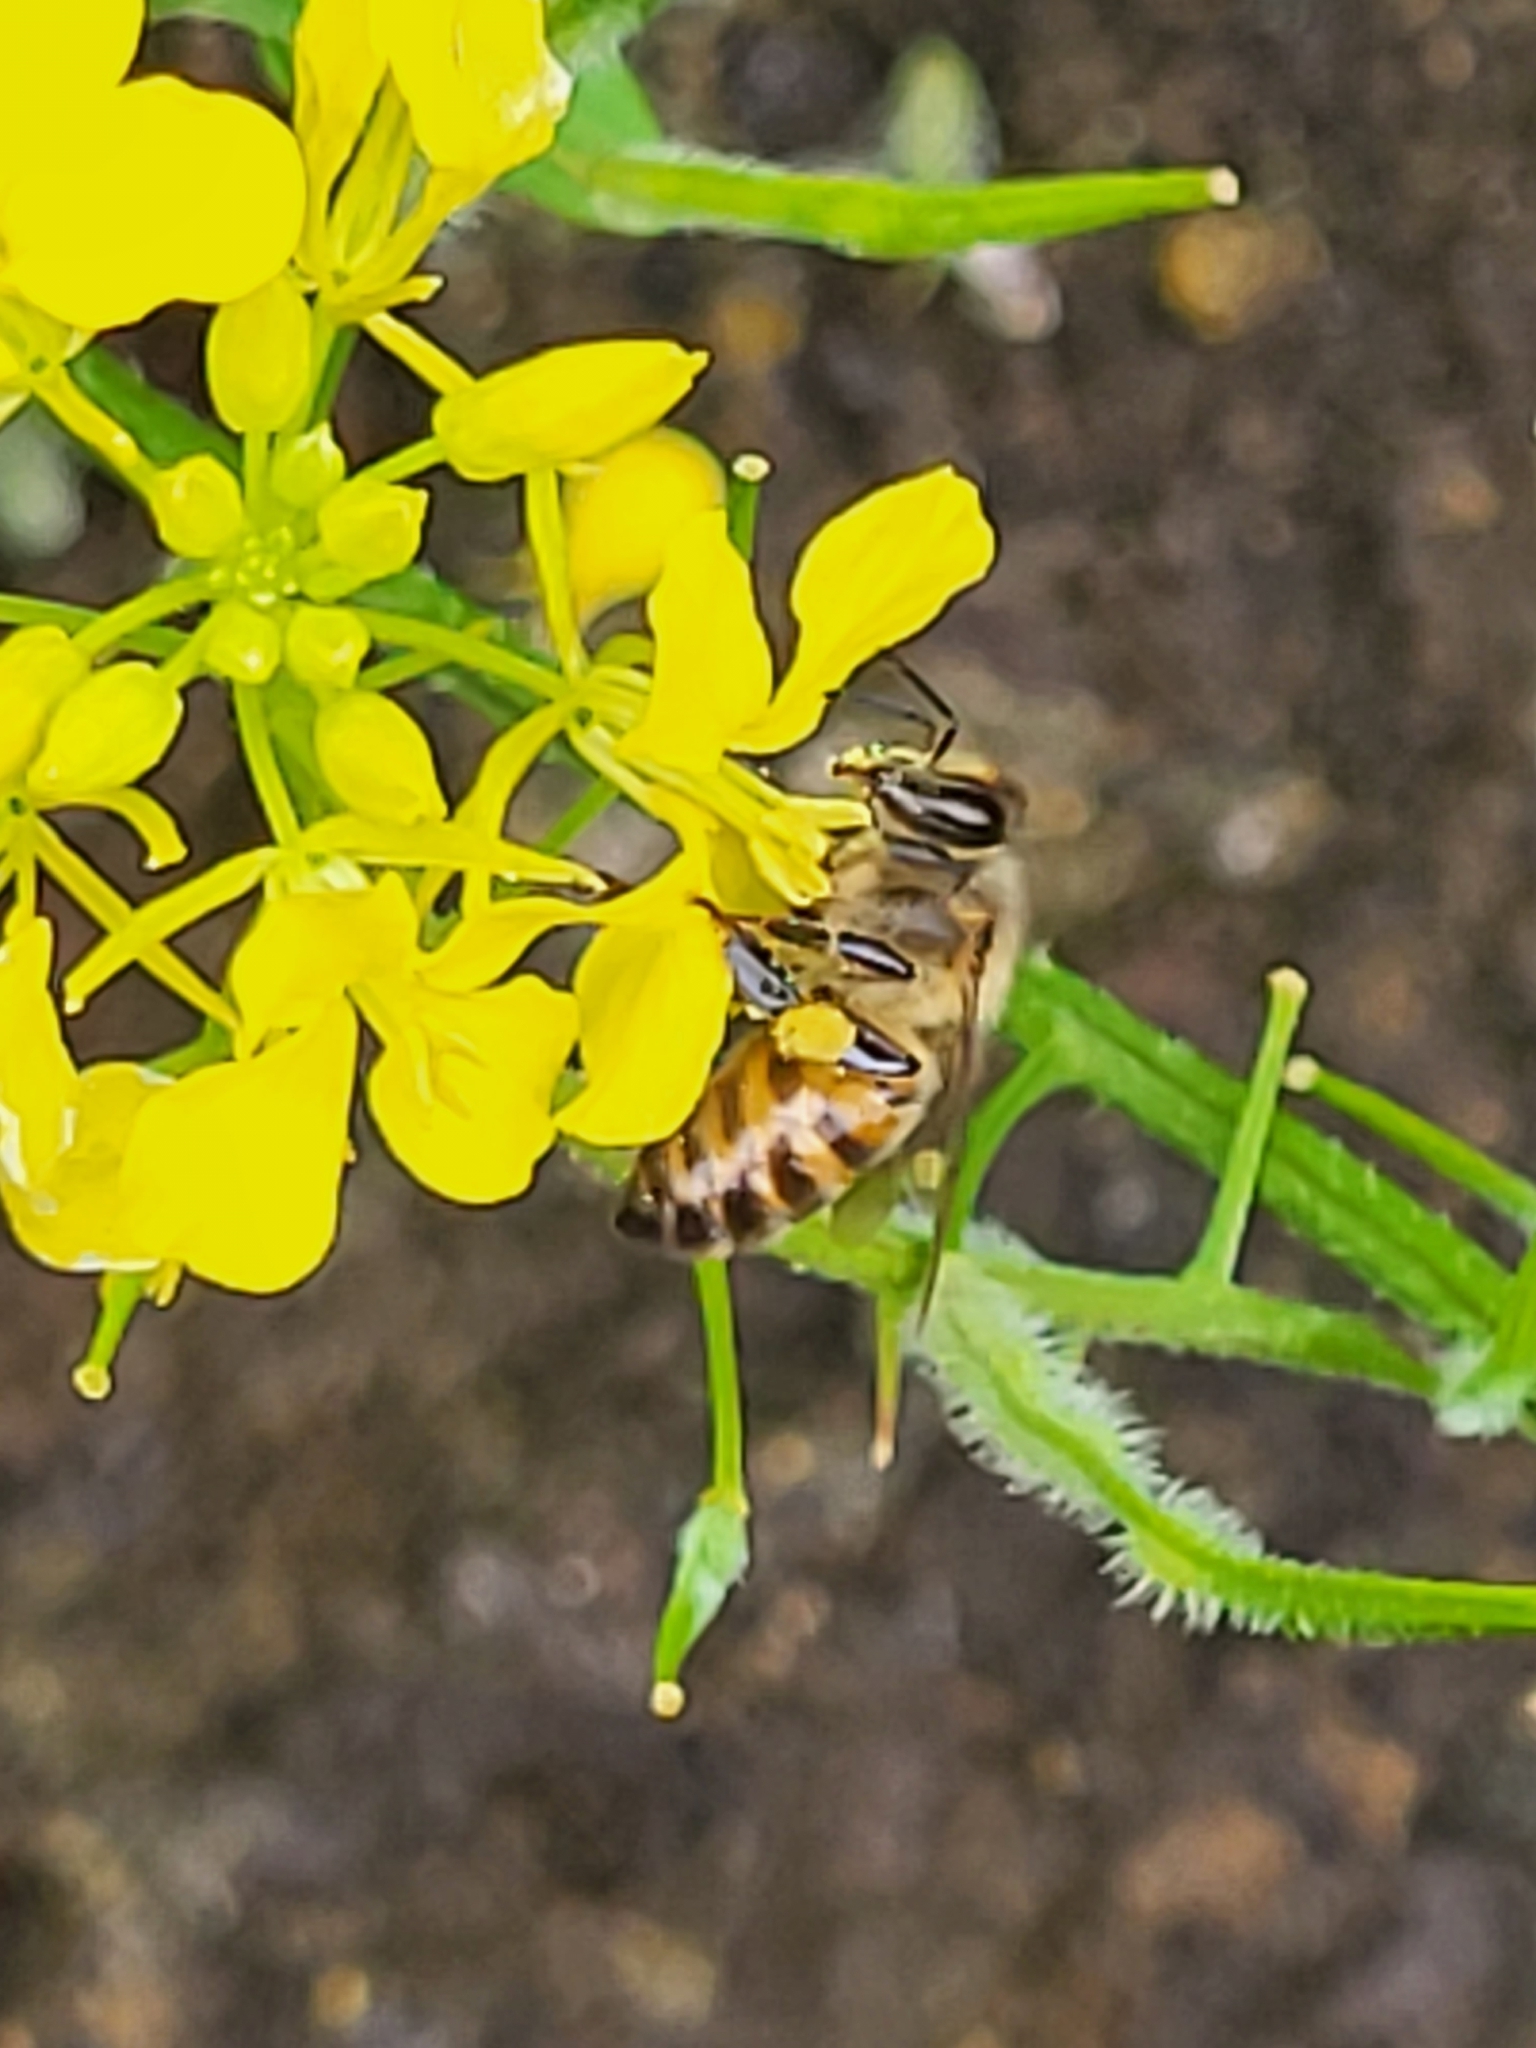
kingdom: Animalia
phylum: Arthropoda
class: Insecta
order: Hymenoptera
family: Apidae
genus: Apis
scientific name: Apis mellifera
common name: Honey bee
